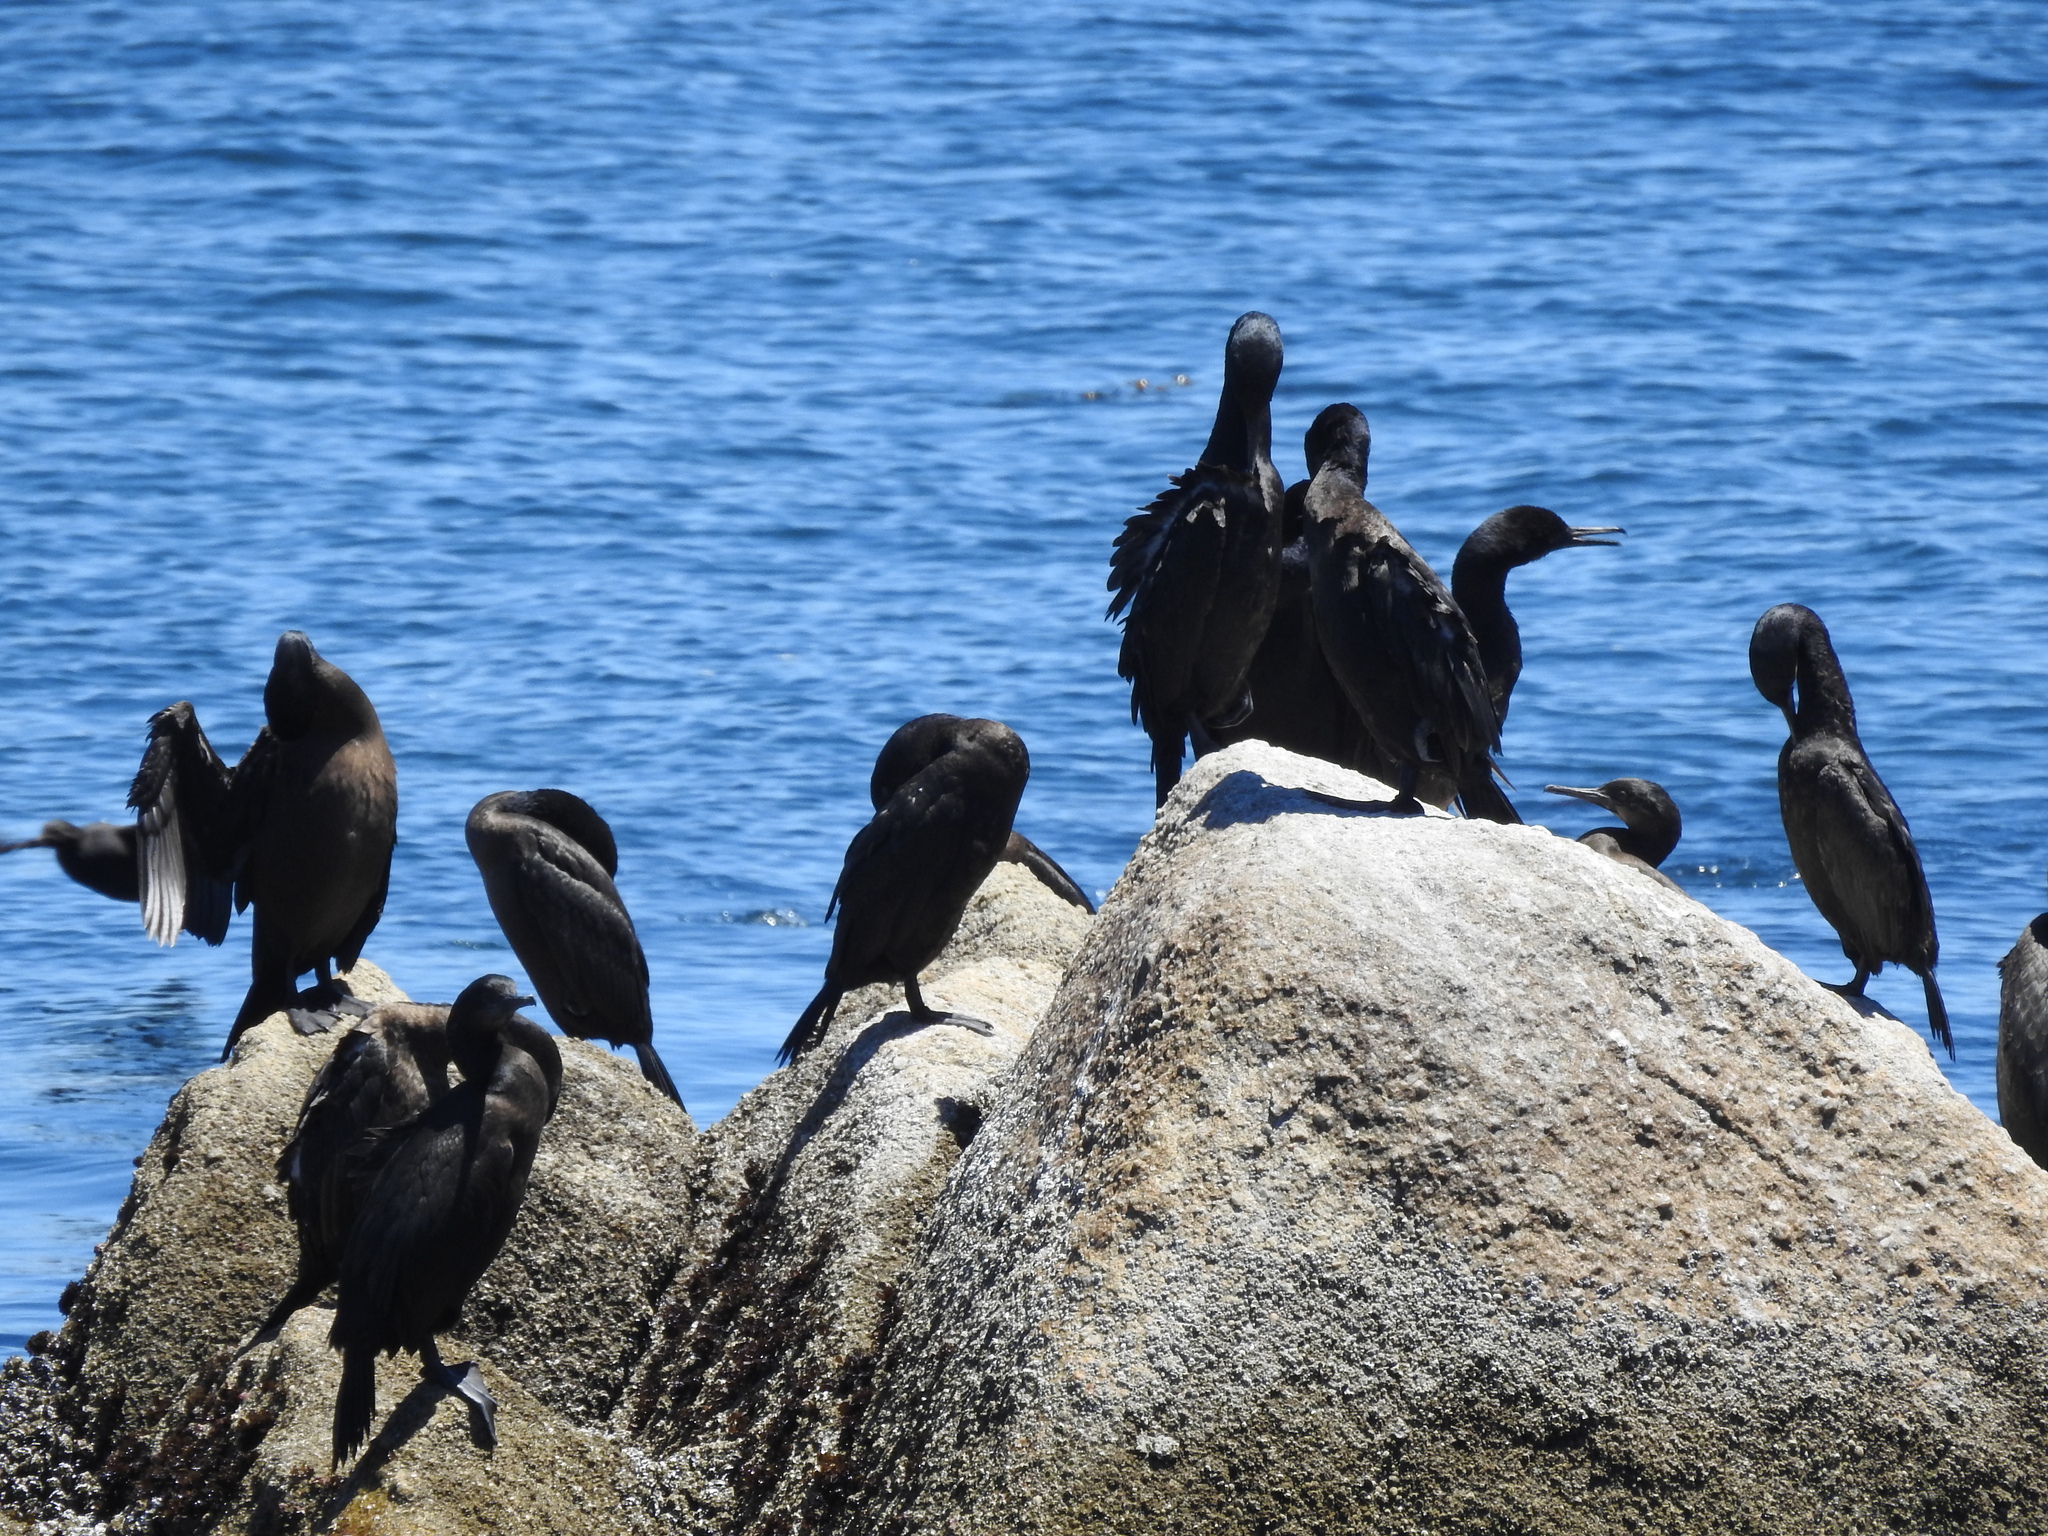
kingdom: Animalia
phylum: Chordata
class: Aves
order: Suliformes
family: Phalacrocoracidae
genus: Urile
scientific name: Urile penicillatus
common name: Brandt's cormorant
